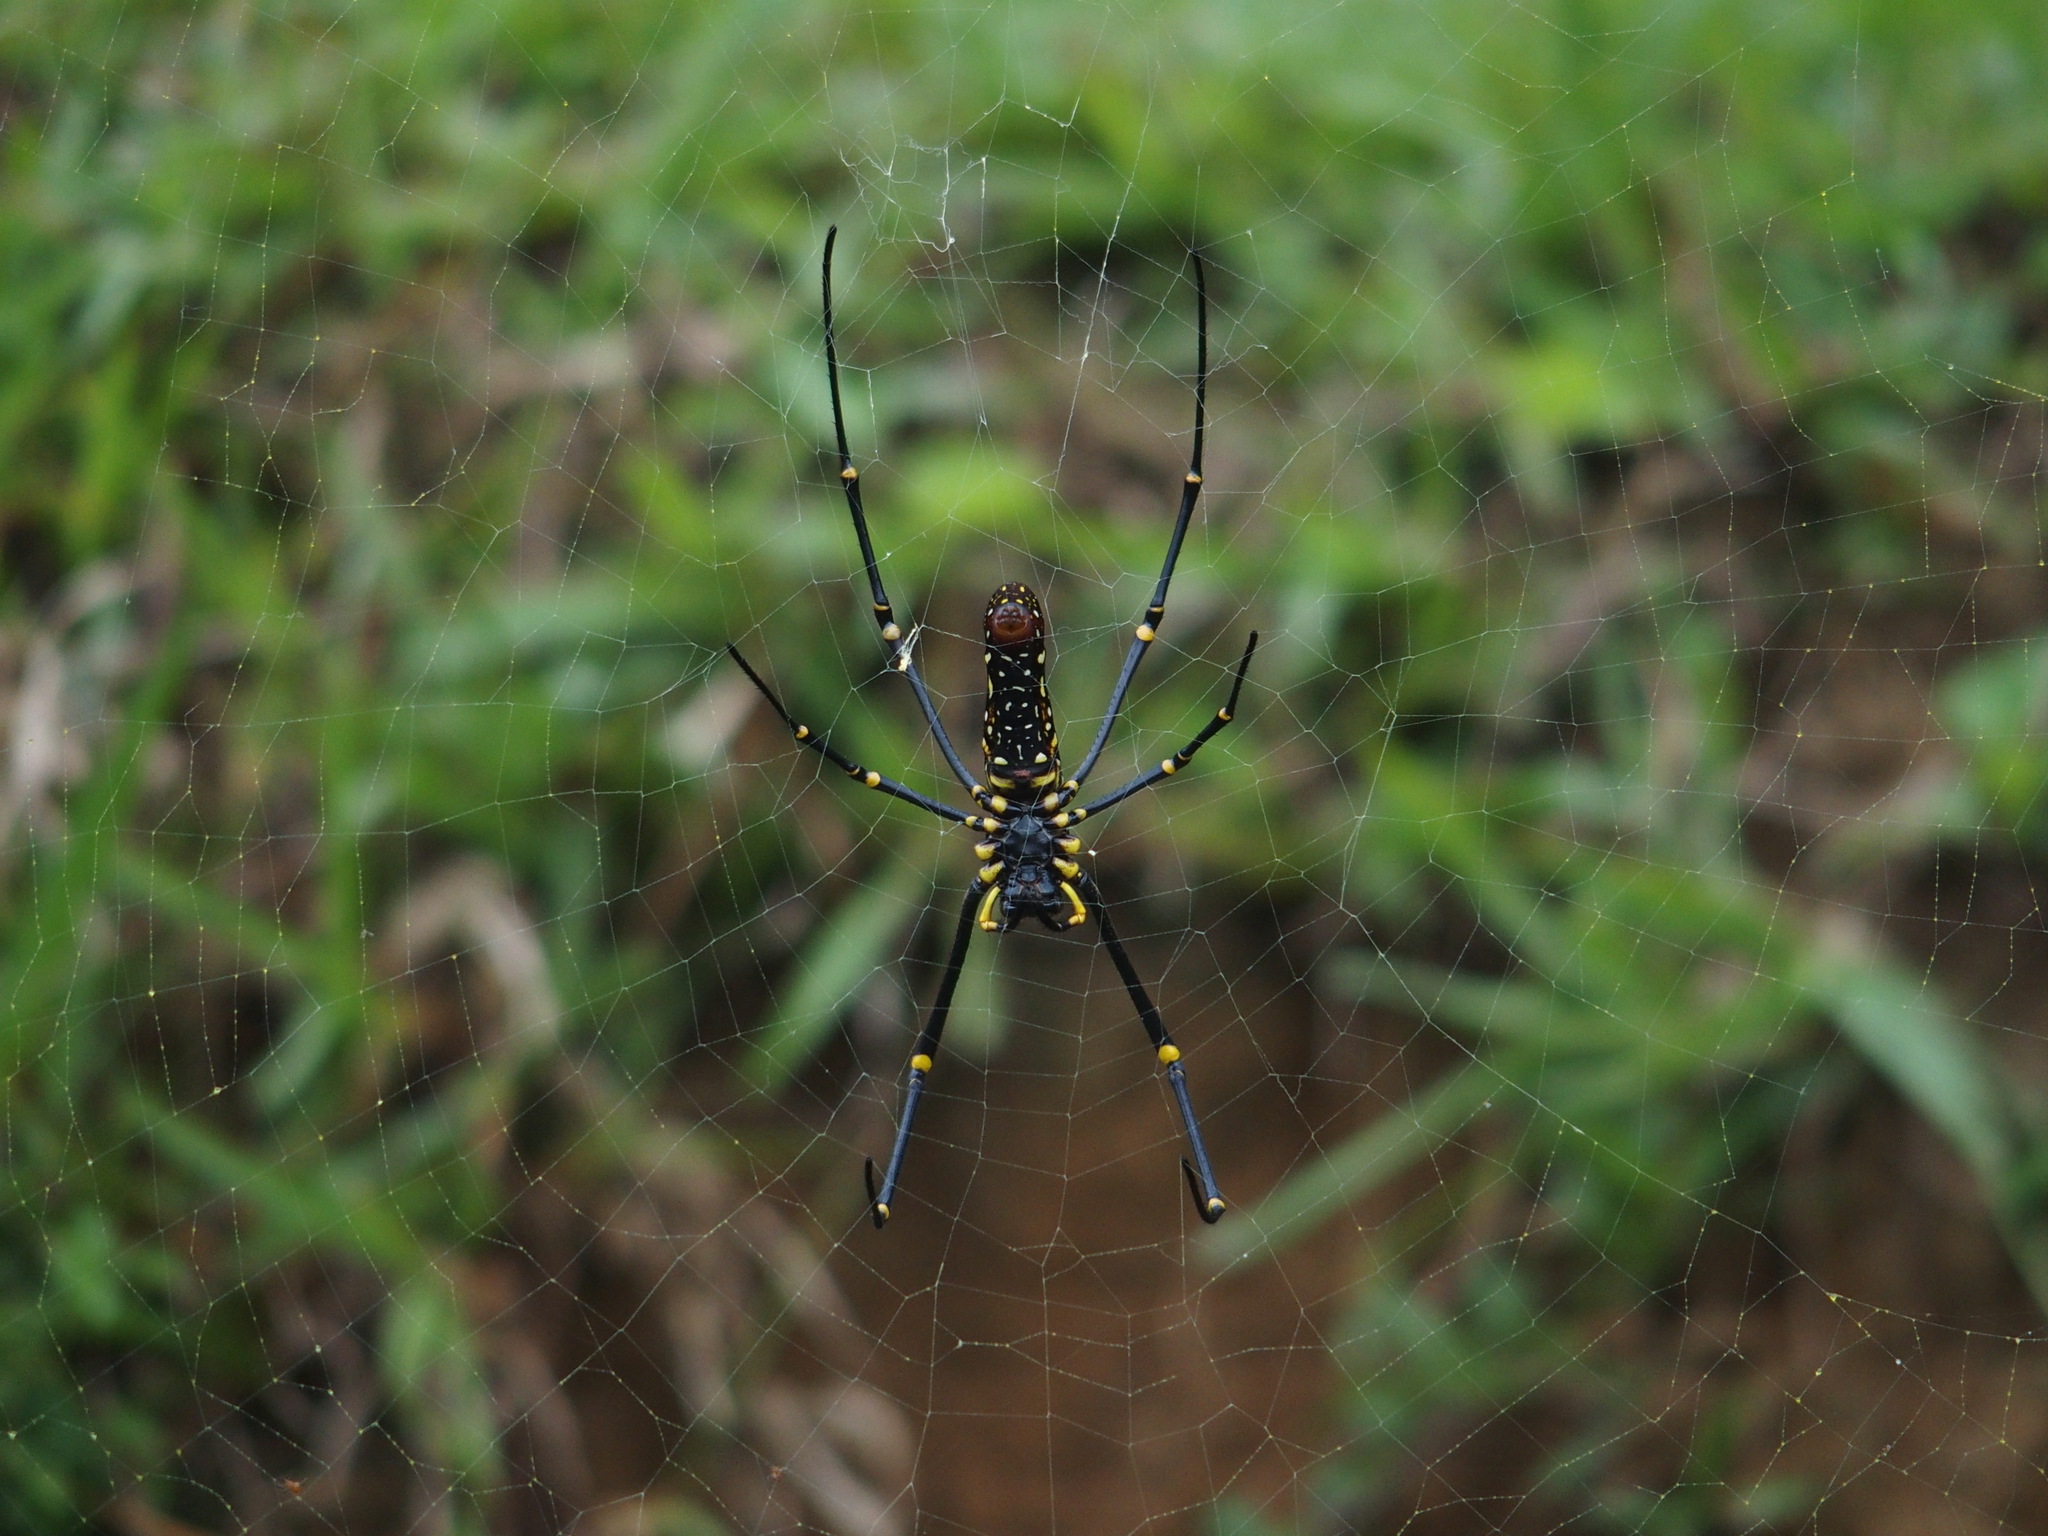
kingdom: Animalia
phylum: Arthropoda
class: Arachnida
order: Araneae
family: Araneidae
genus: Nephila
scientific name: Nephila pilipes
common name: Giant golden orb weaver
